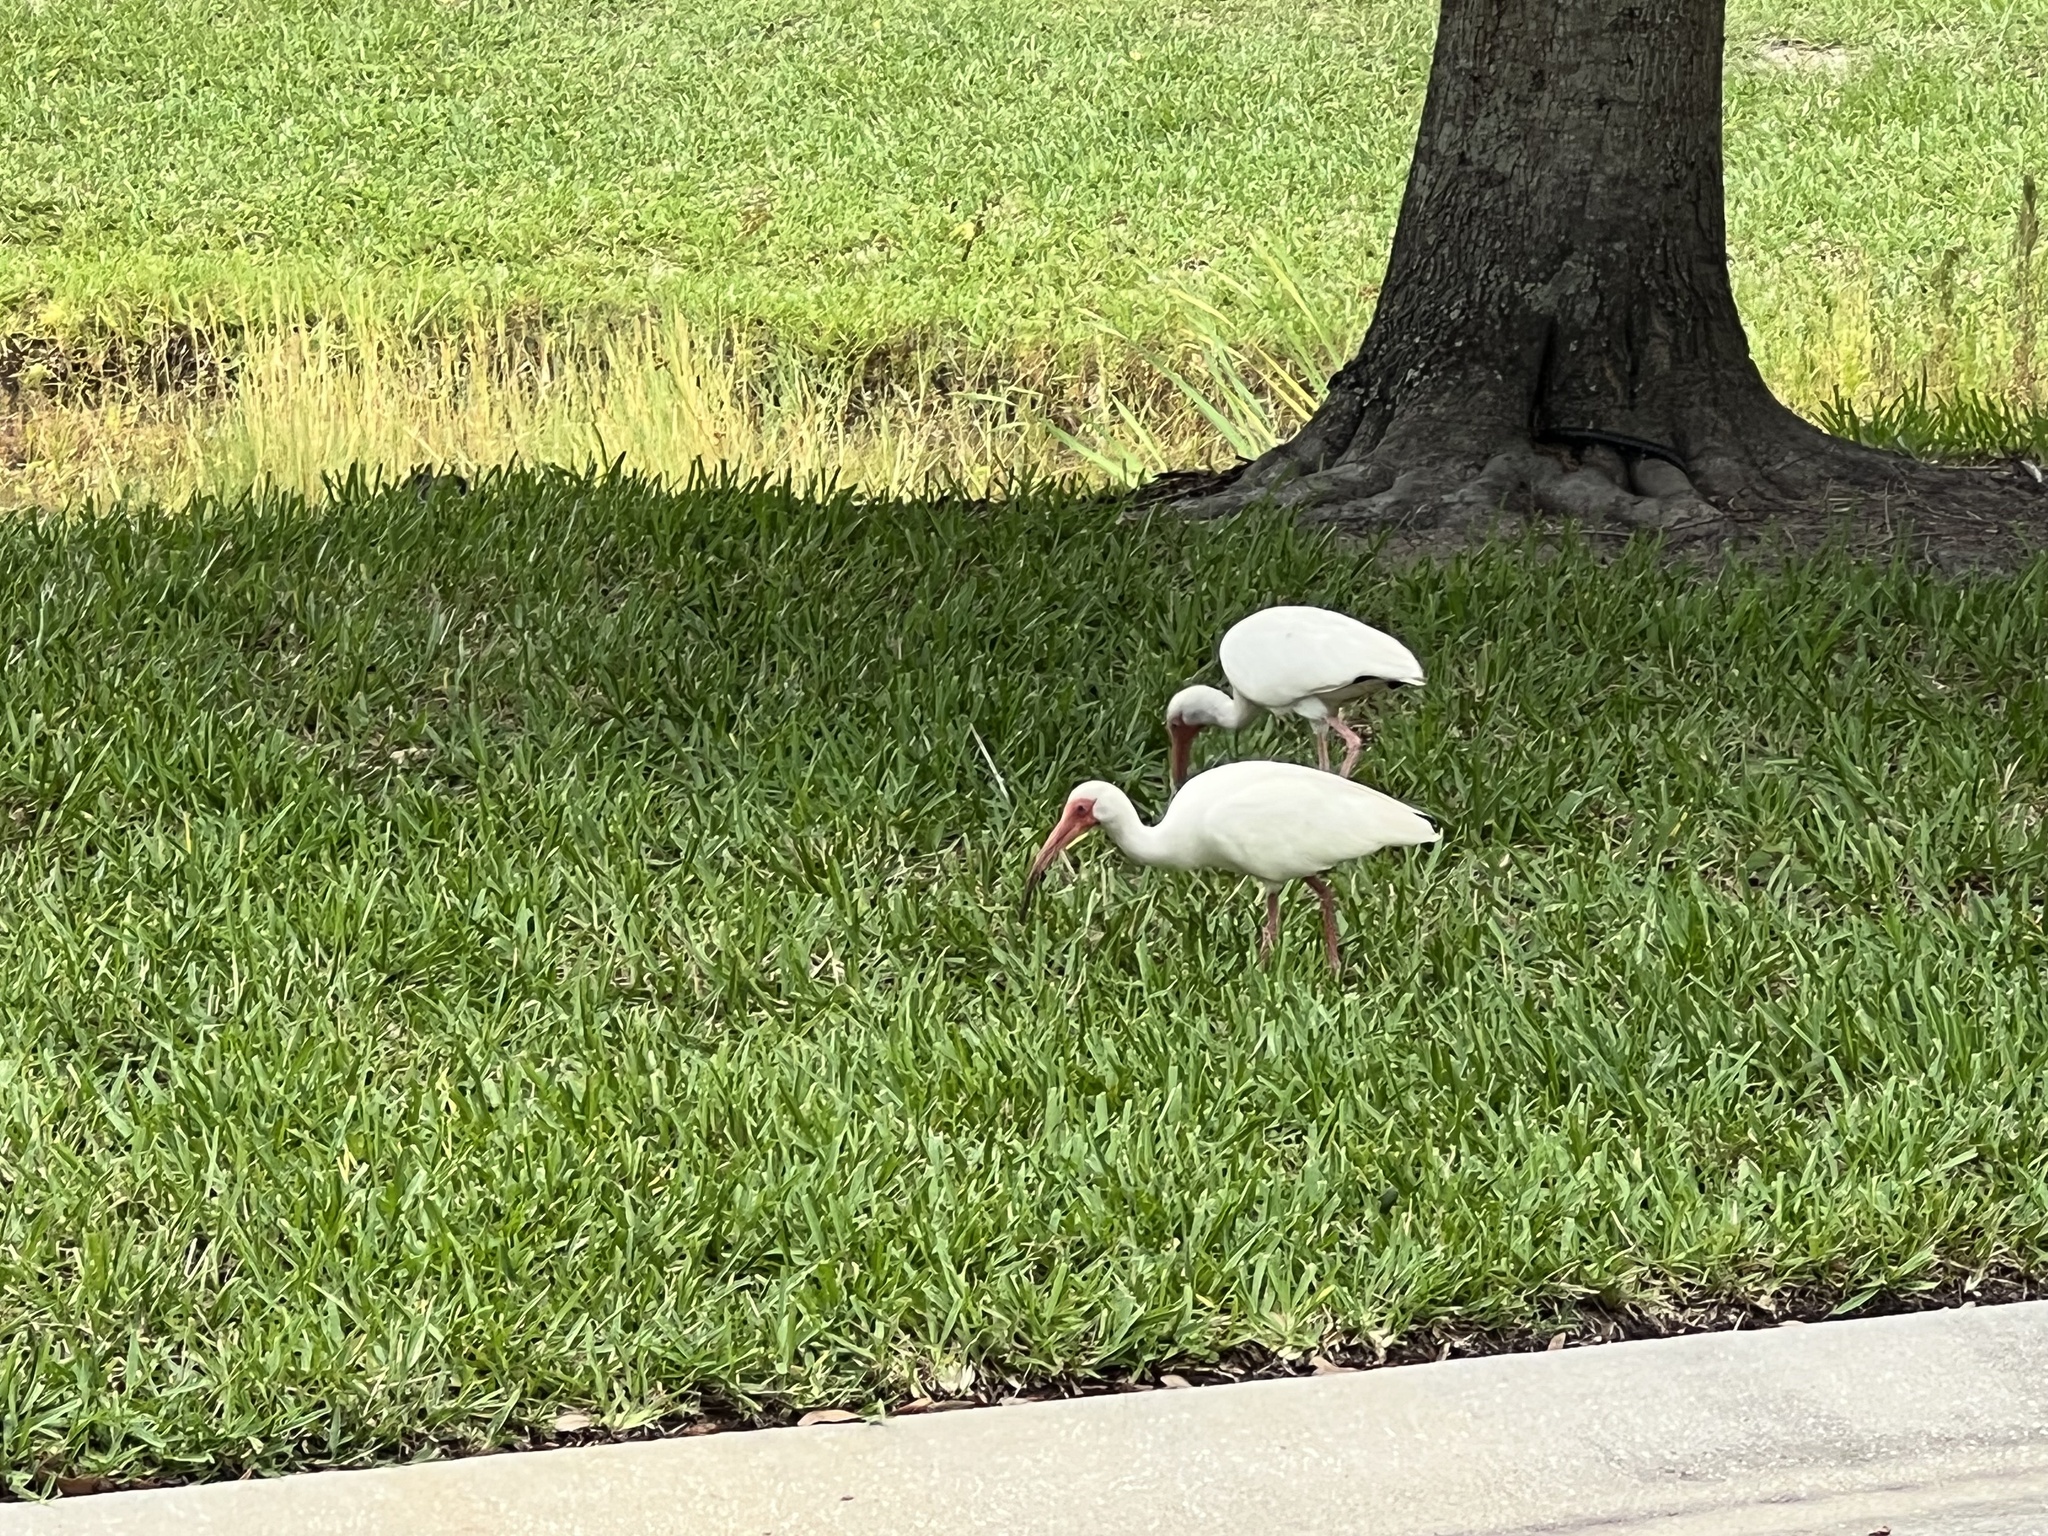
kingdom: Animalia
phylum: Chordata
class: Aves
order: Pelecaniformes
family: Threskiornithidae
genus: Eudocimus
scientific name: Eudocimus albus
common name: White ibis
